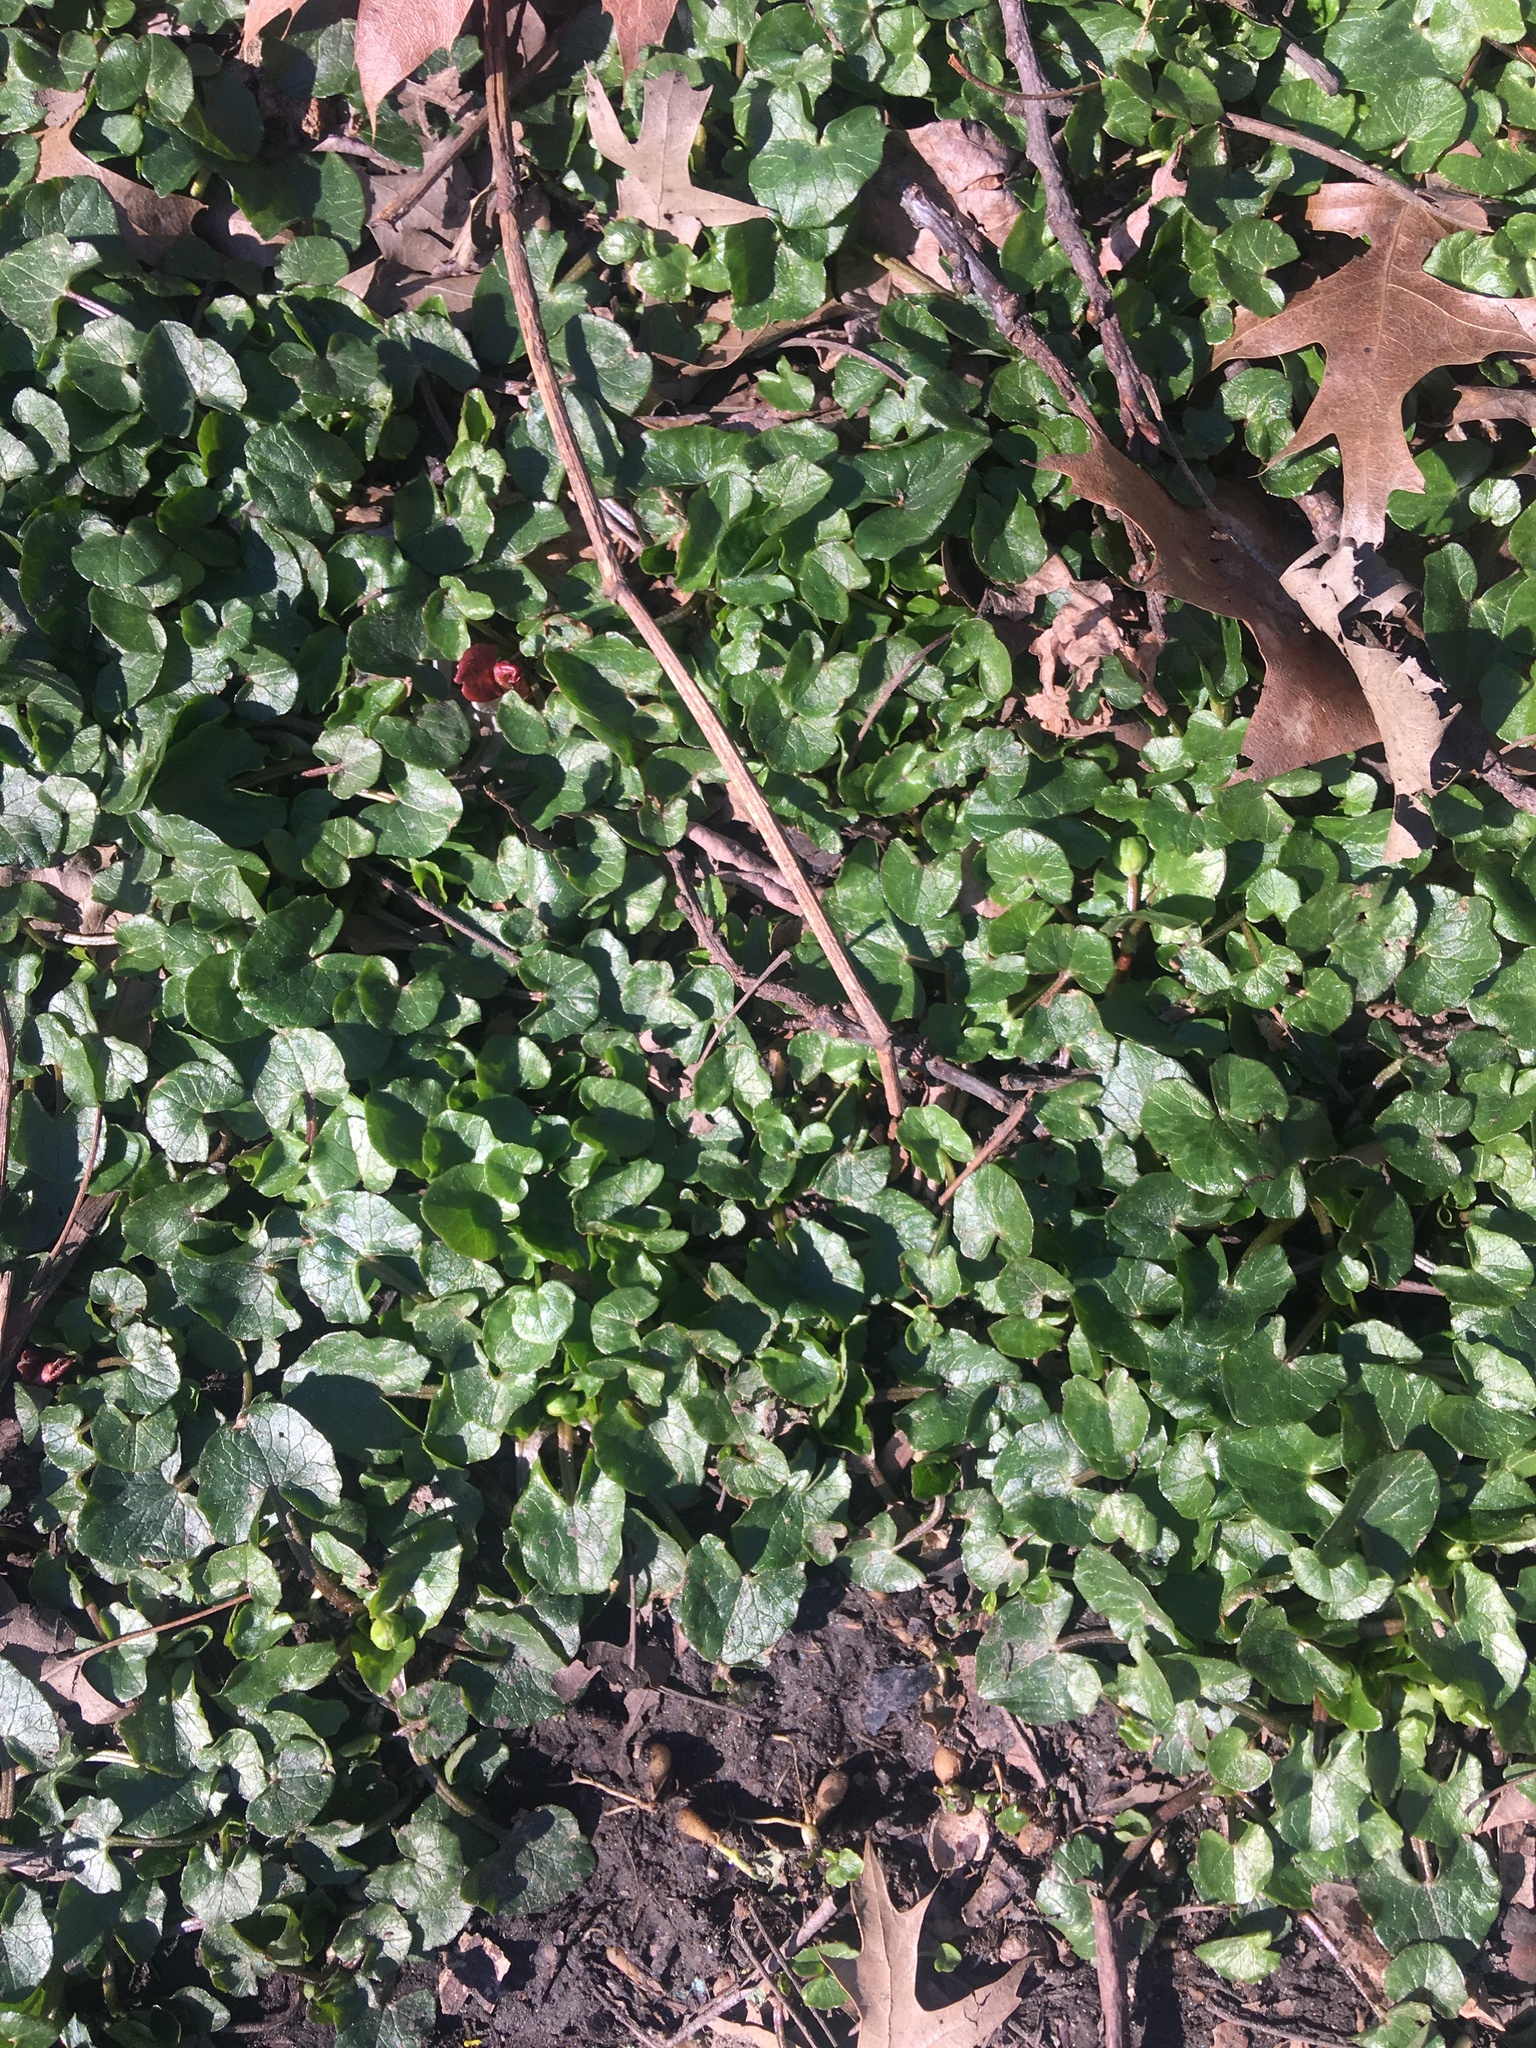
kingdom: Plantae
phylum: Tracheophyta
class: Magnoliopsida
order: Ranunculales
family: Ranunculaceae
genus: Ficaria
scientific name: Ficaria verna
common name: Lesser celandine
